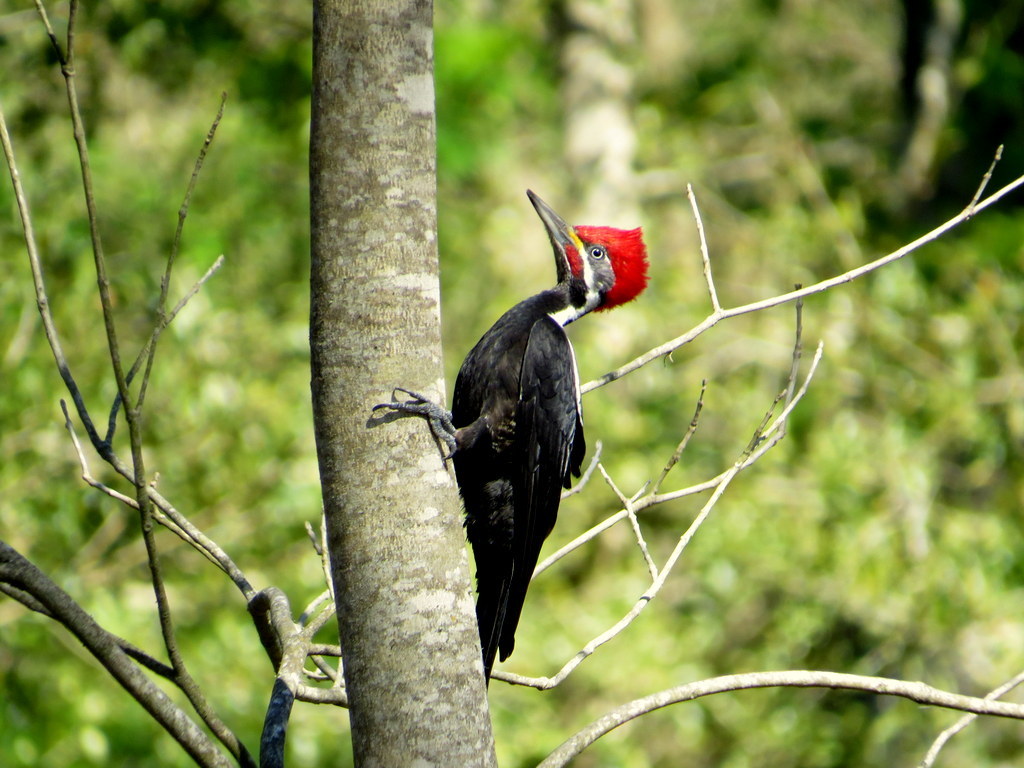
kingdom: Animalia
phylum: Chordata
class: Aves
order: Piciformes
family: Picidae
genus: Dryocopus
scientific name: Dryocopus schulzii
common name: Black-bodied woodpecker
